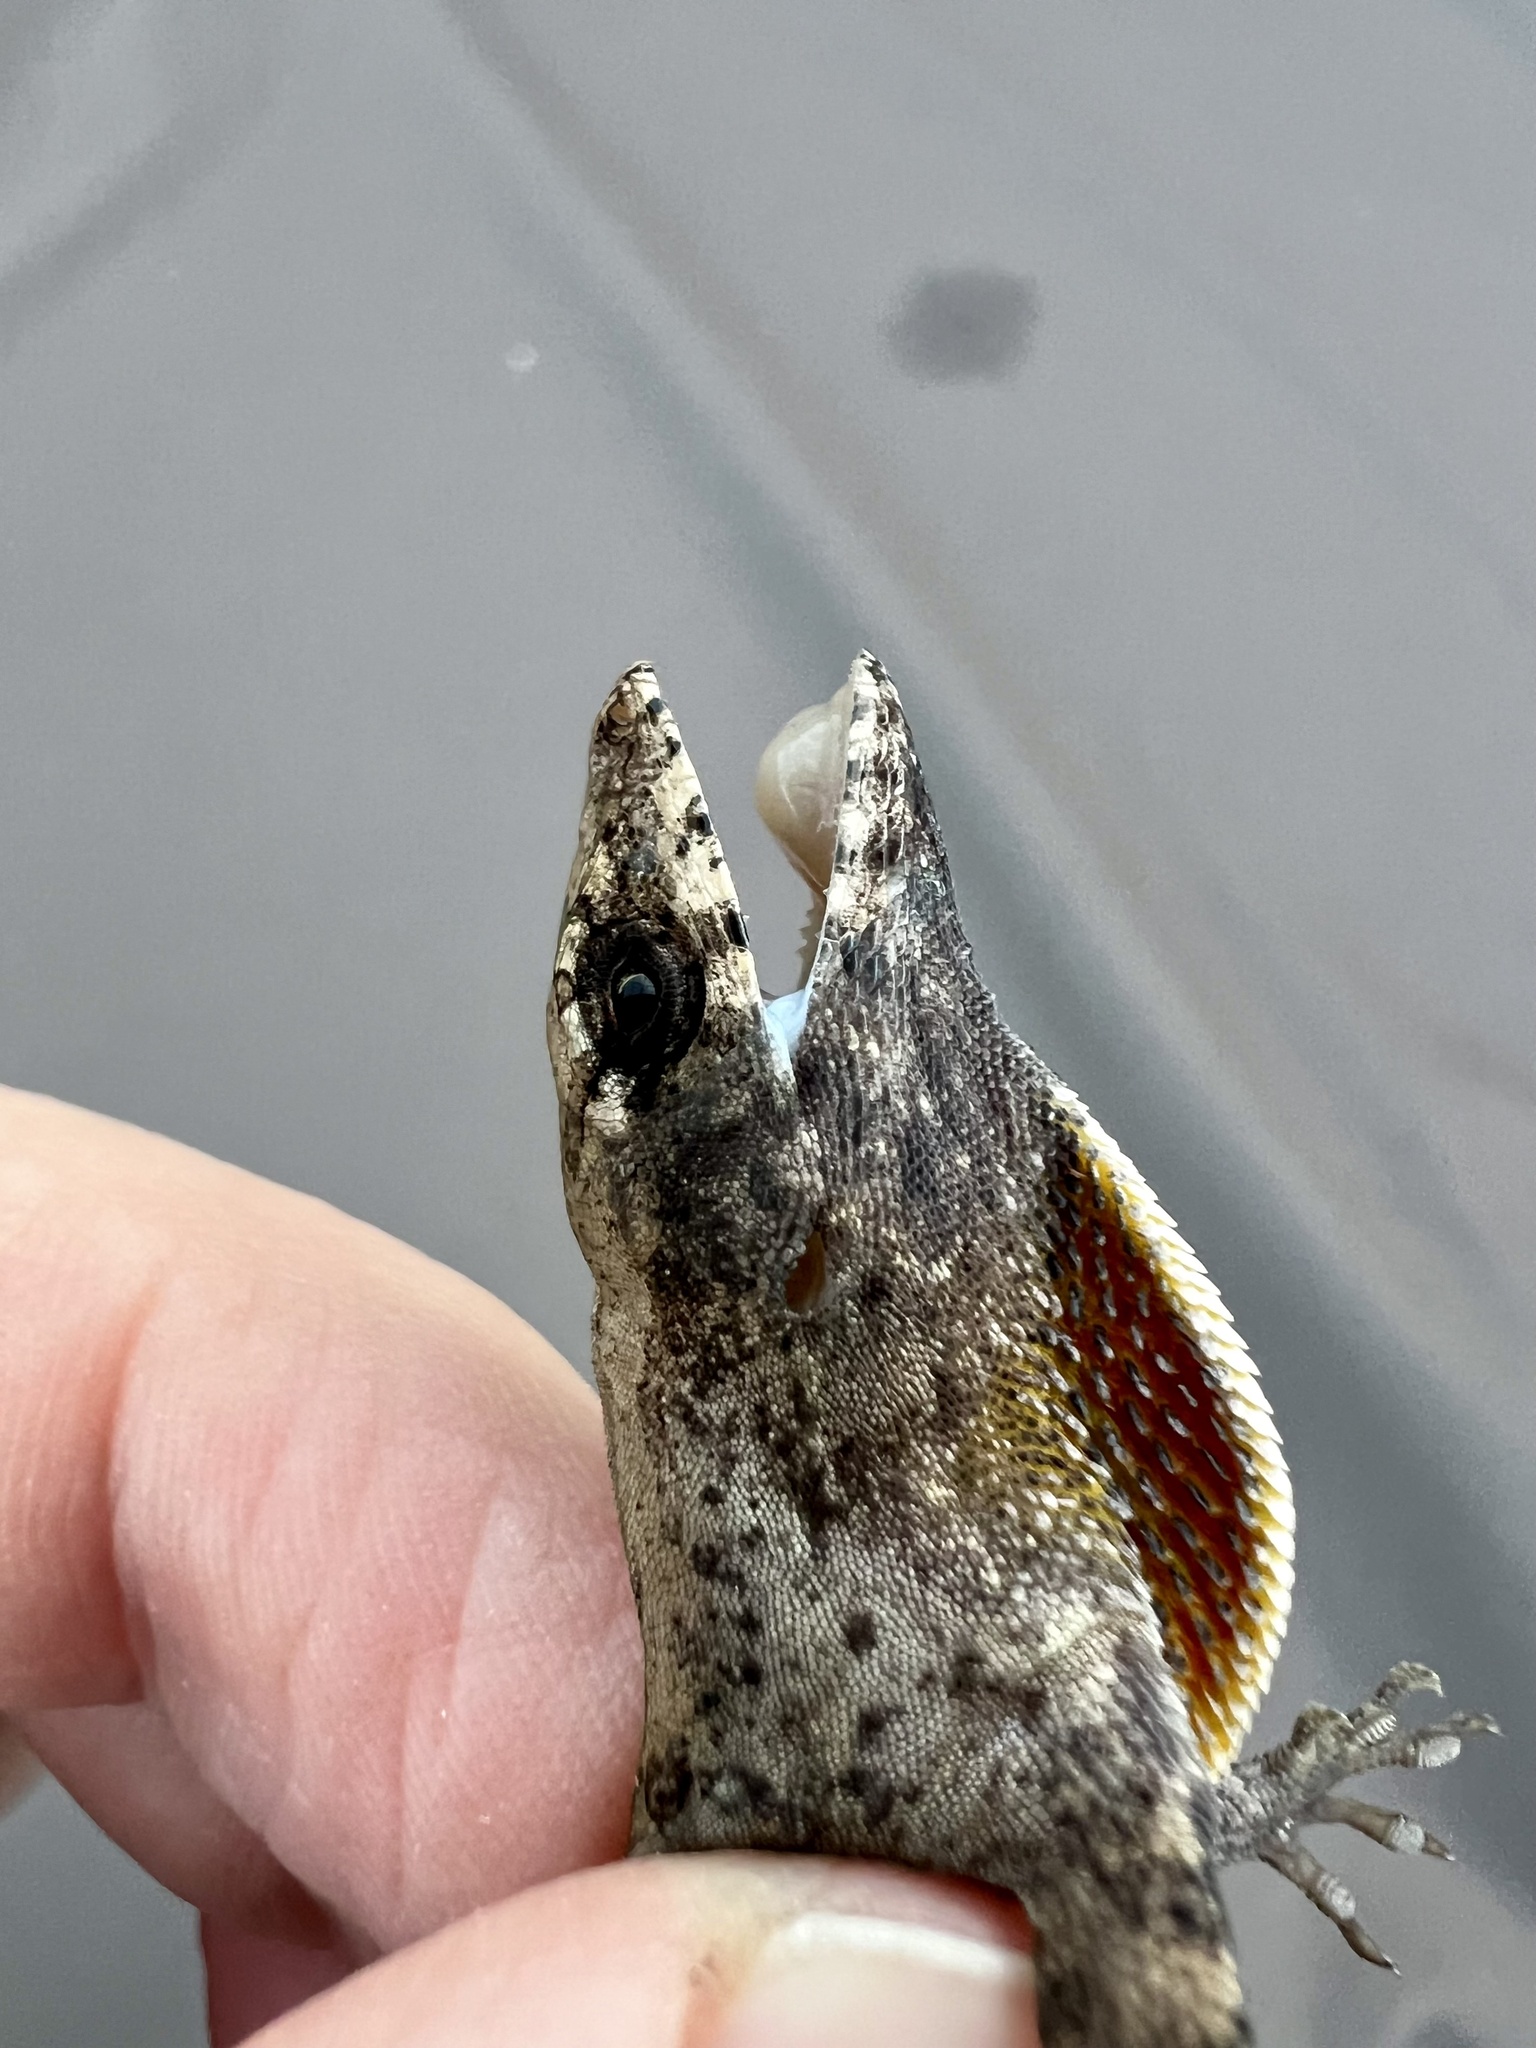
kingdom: Animalia
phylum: Chordata
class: Squamata
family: Dactyloidae
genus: Anolis
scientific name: Anolis sagrei
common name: Brown anole
